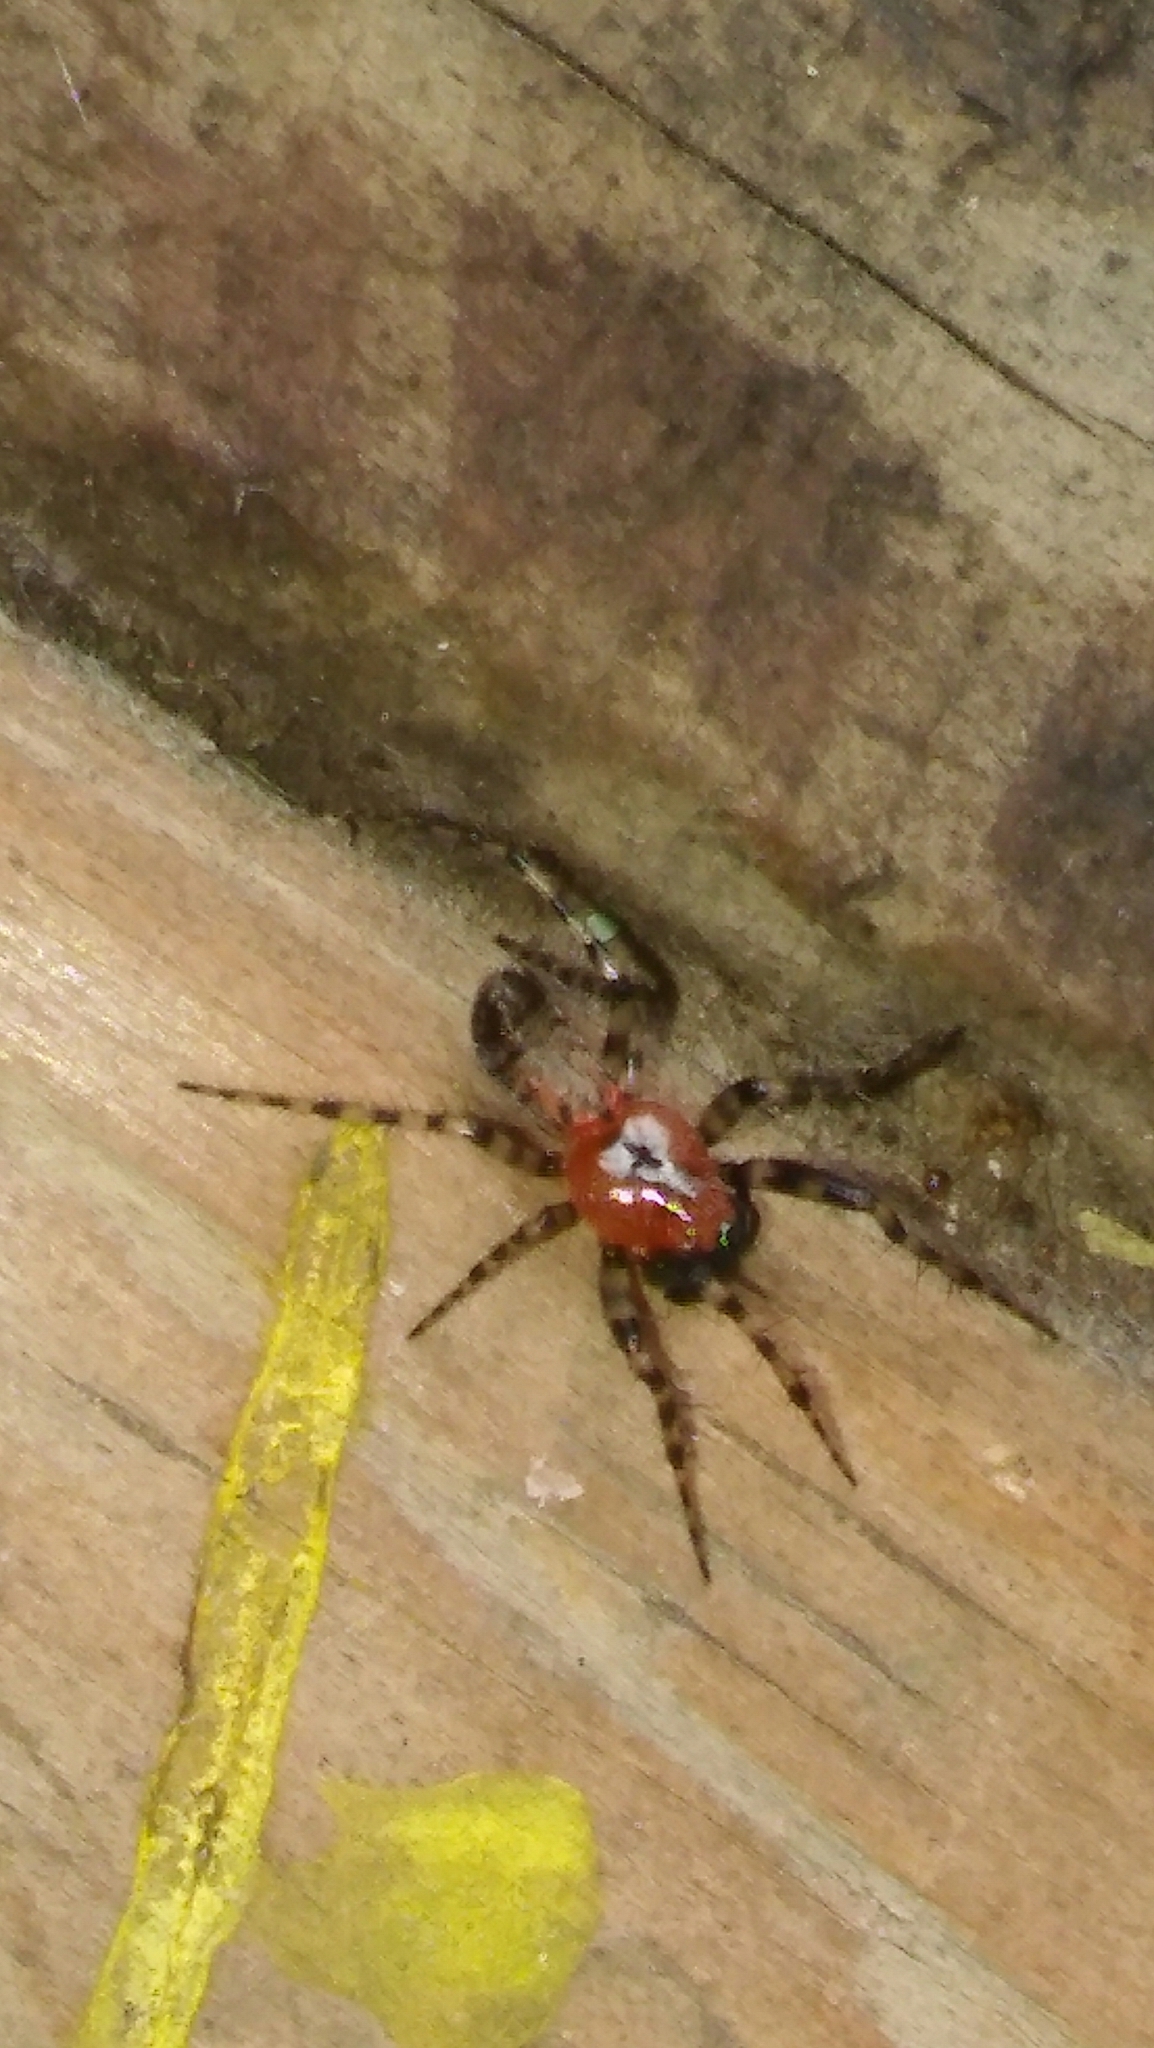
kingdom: Animalia
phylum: Arthropoda
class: Arachnida
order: Araneae
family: Araneidae
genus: Alpaida
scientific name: Alpaida gallardoi
